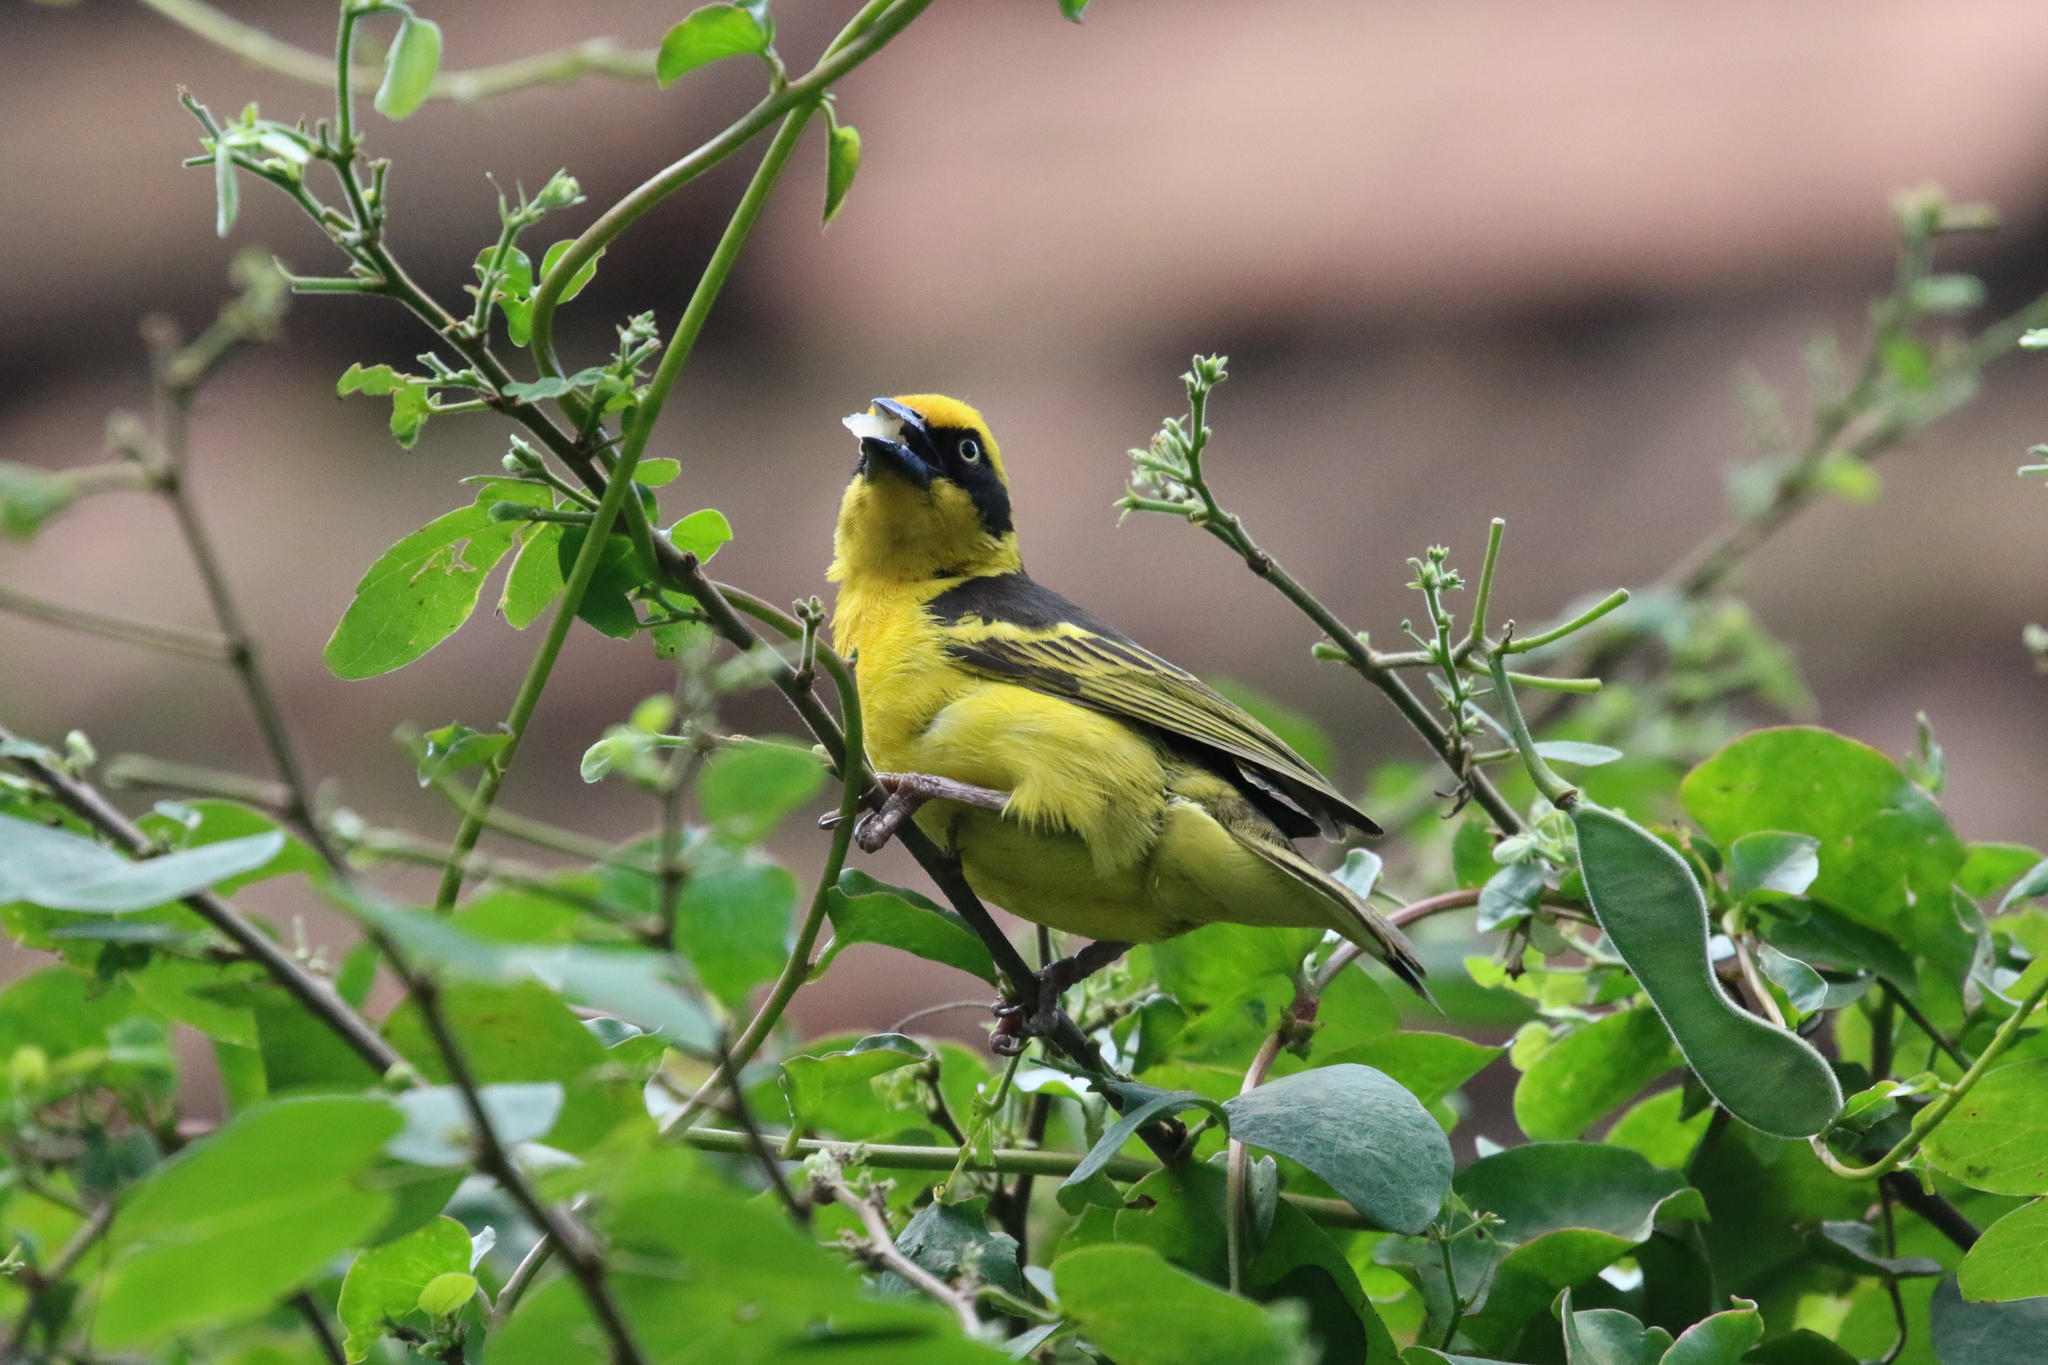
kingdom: Animalia
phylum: Chordata
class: Aves
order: Passeriformes
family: Ploceidae
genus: Ploceus
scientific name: Ploceus baglafecht
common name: Baglafecht weaver
